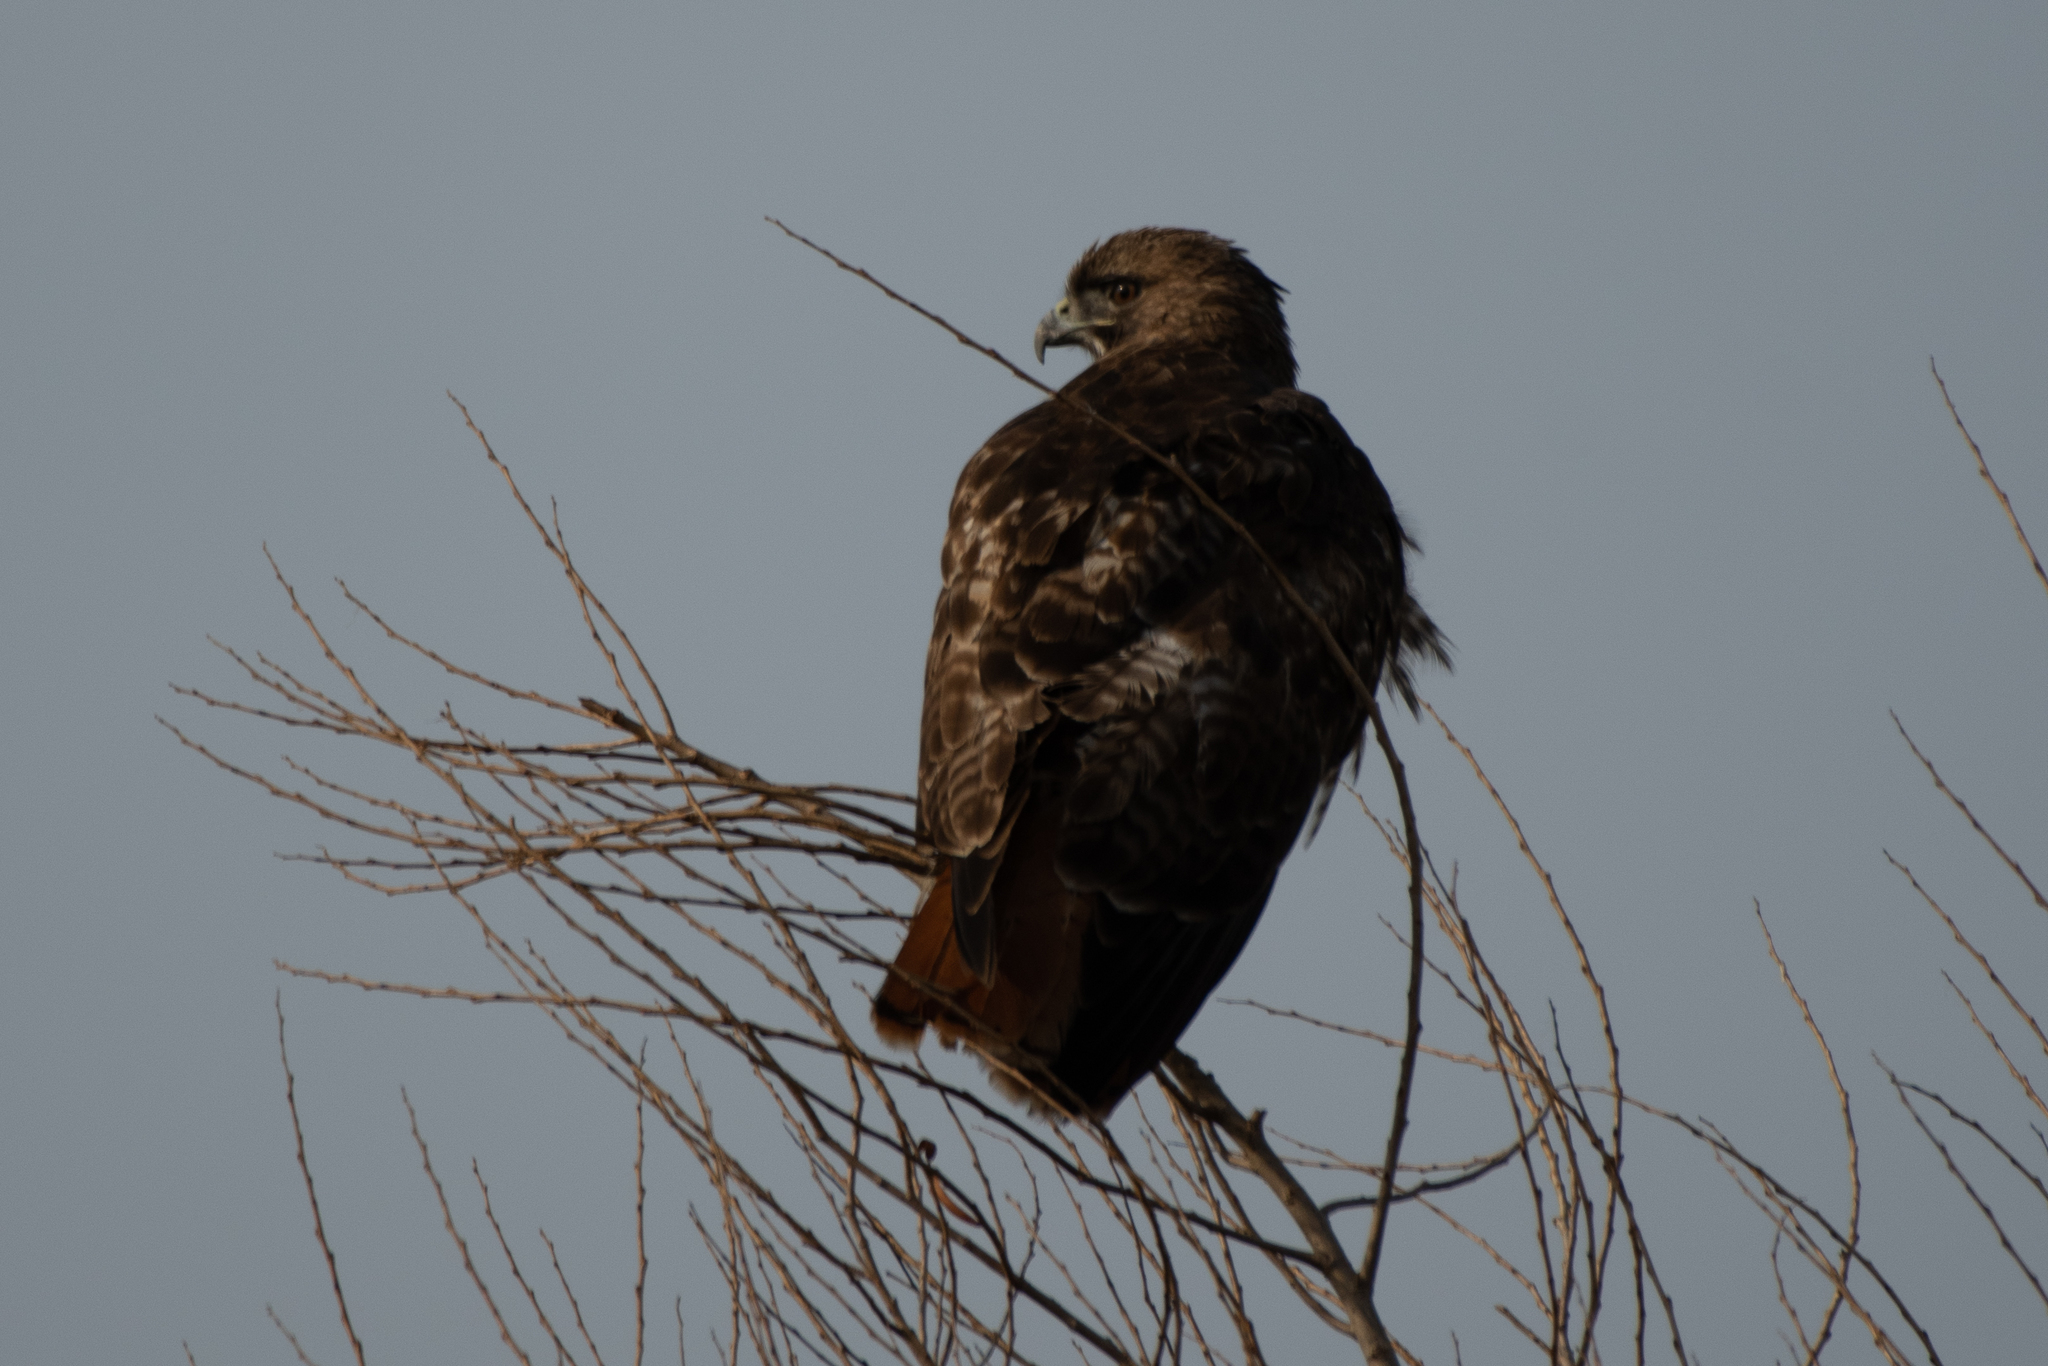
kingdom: Animalia
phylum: Chordata
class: Aves
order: Accipitriformes
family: Accipitridae
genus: Buteo
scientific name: Buteo jamaicensis
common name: Red-tailed hawk
